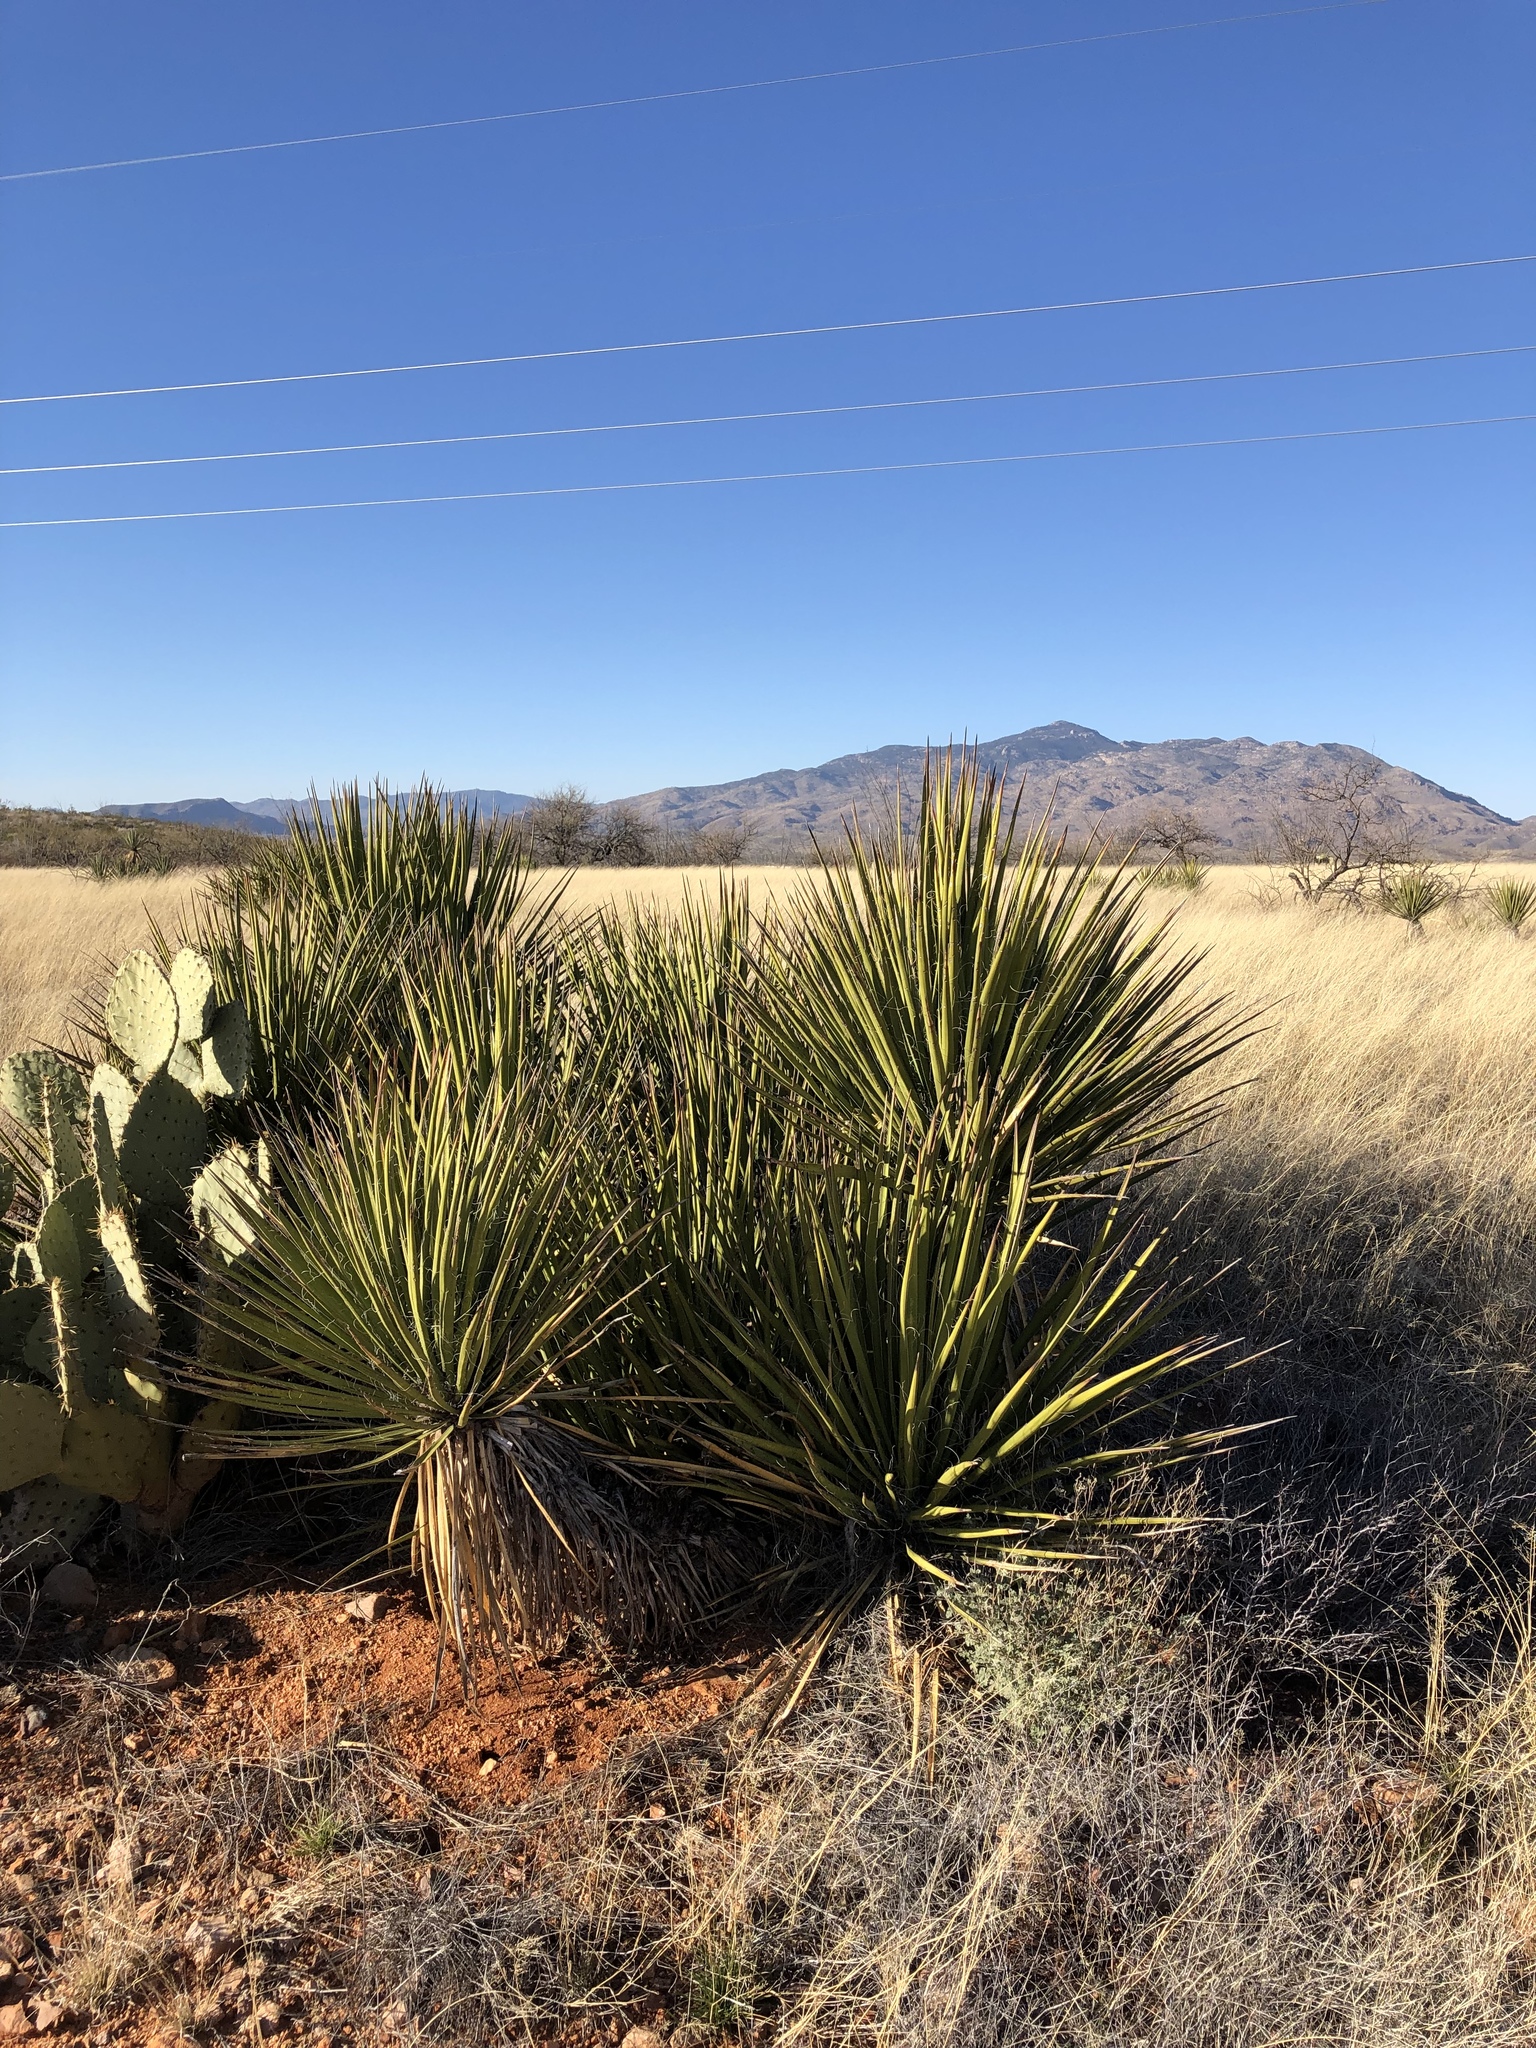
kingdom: Plantae
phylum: Tracheophyta
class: Liliopsida
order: Asparagales
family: Asparagaceae
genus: Yucca
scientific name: Yucca baccata
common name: Banana yucca
